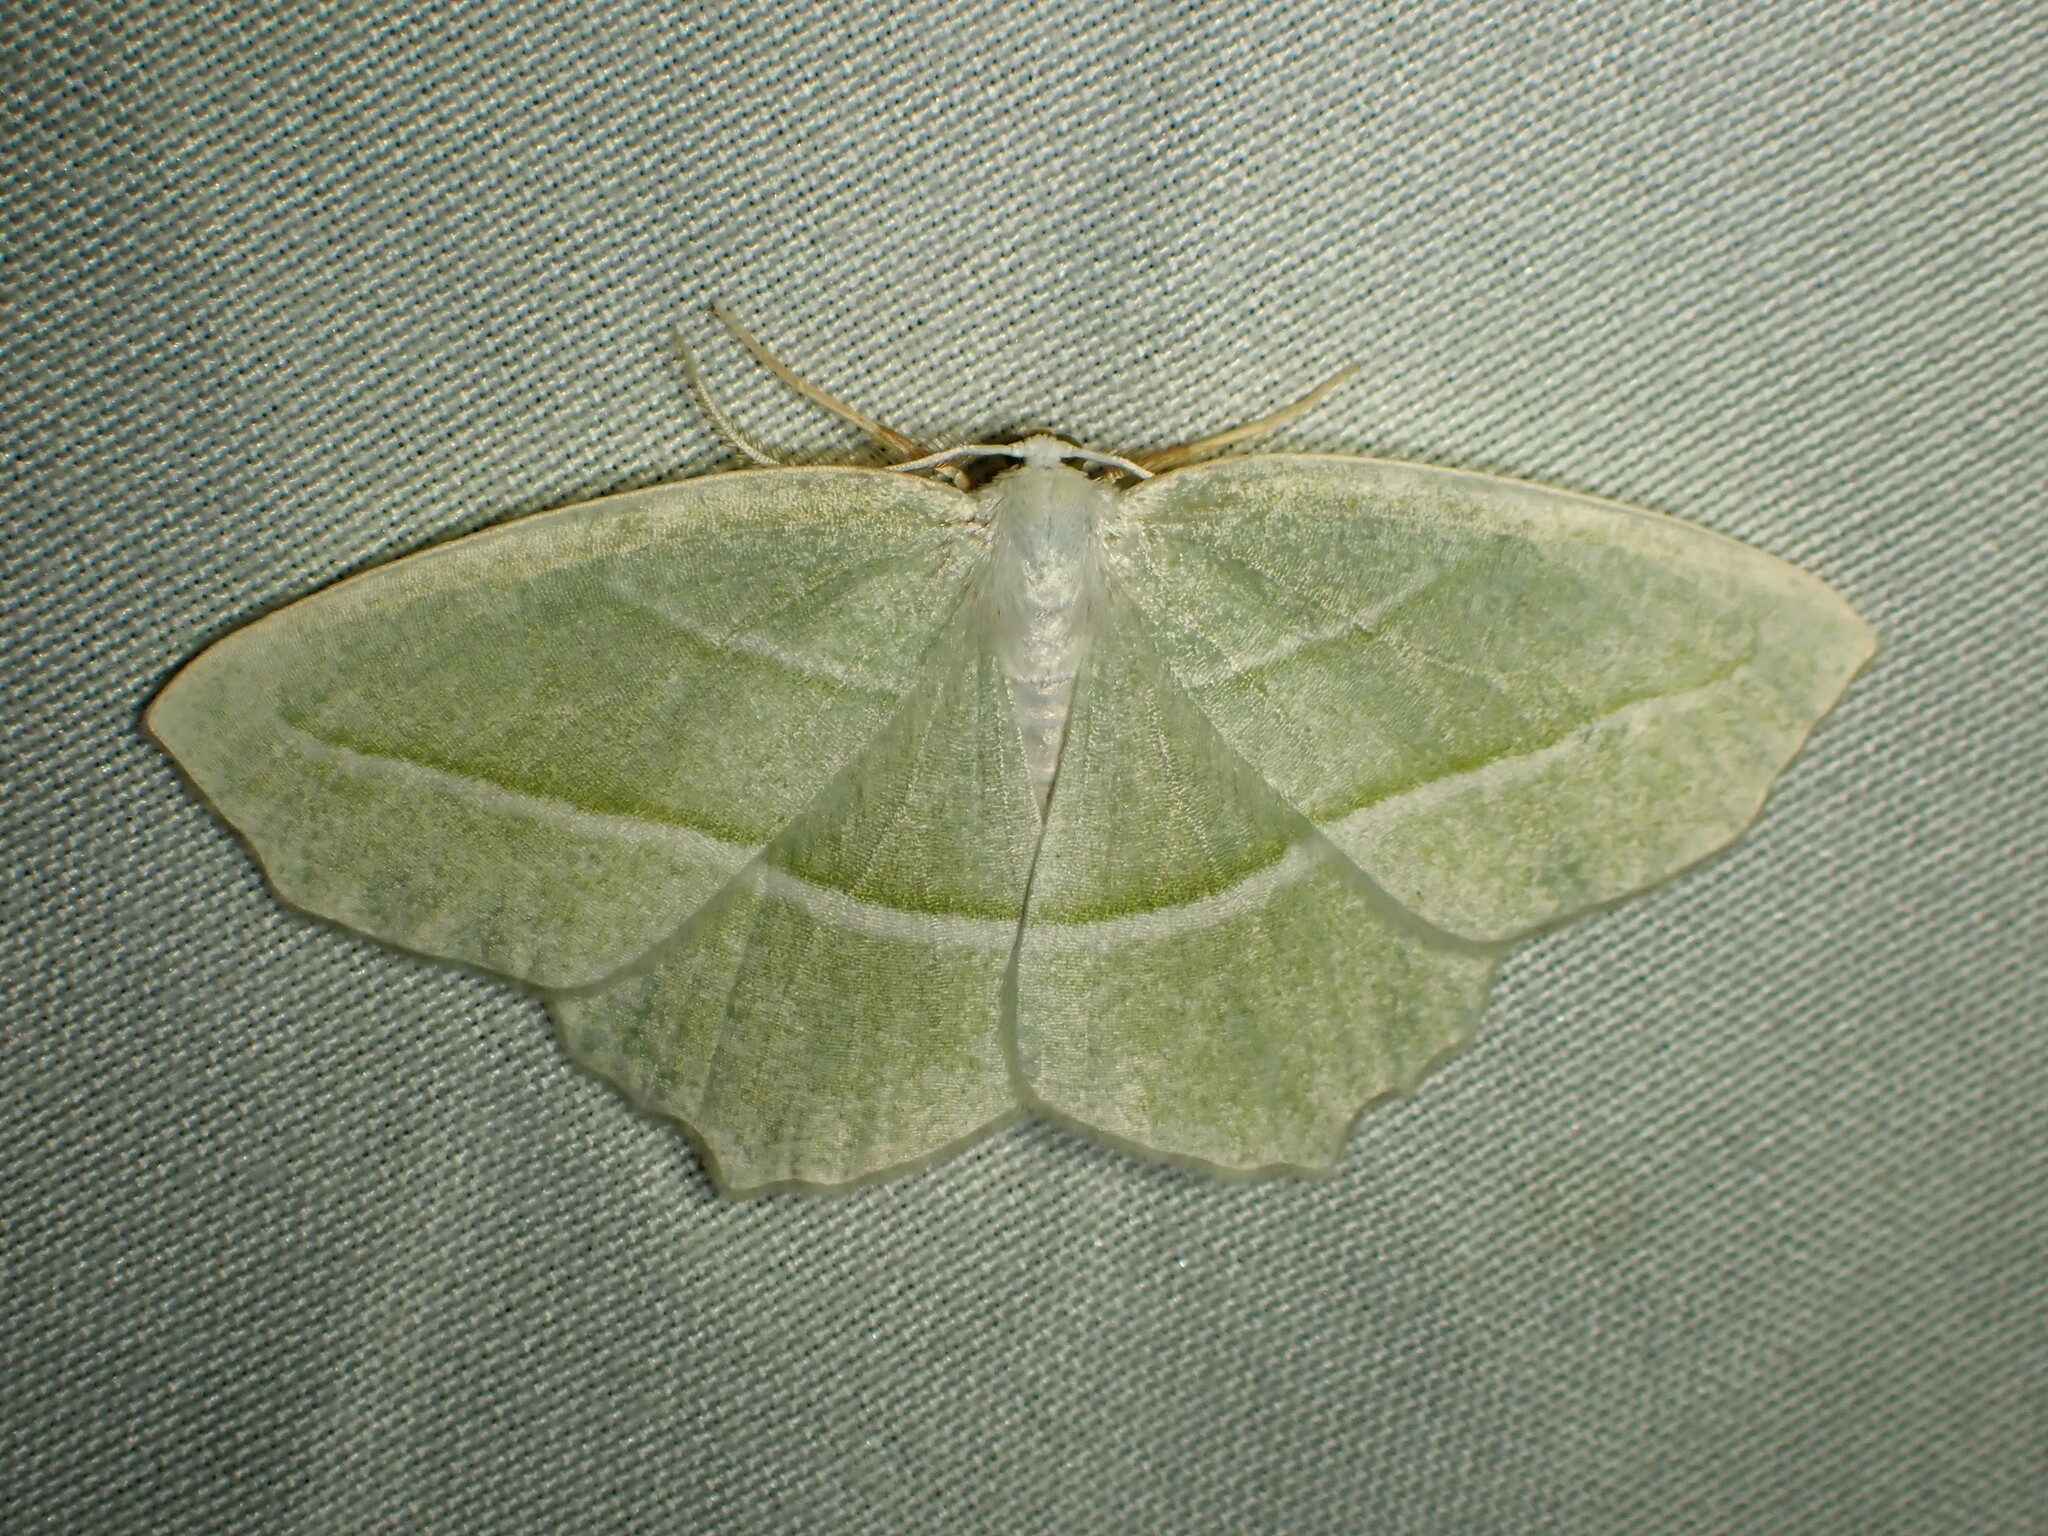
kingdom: Animalia
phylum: Arthropoda
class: Insecta
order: Lepidoptera
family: Geometridae
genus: Campaea
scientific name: Campaea perlata
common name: Fringed looper
